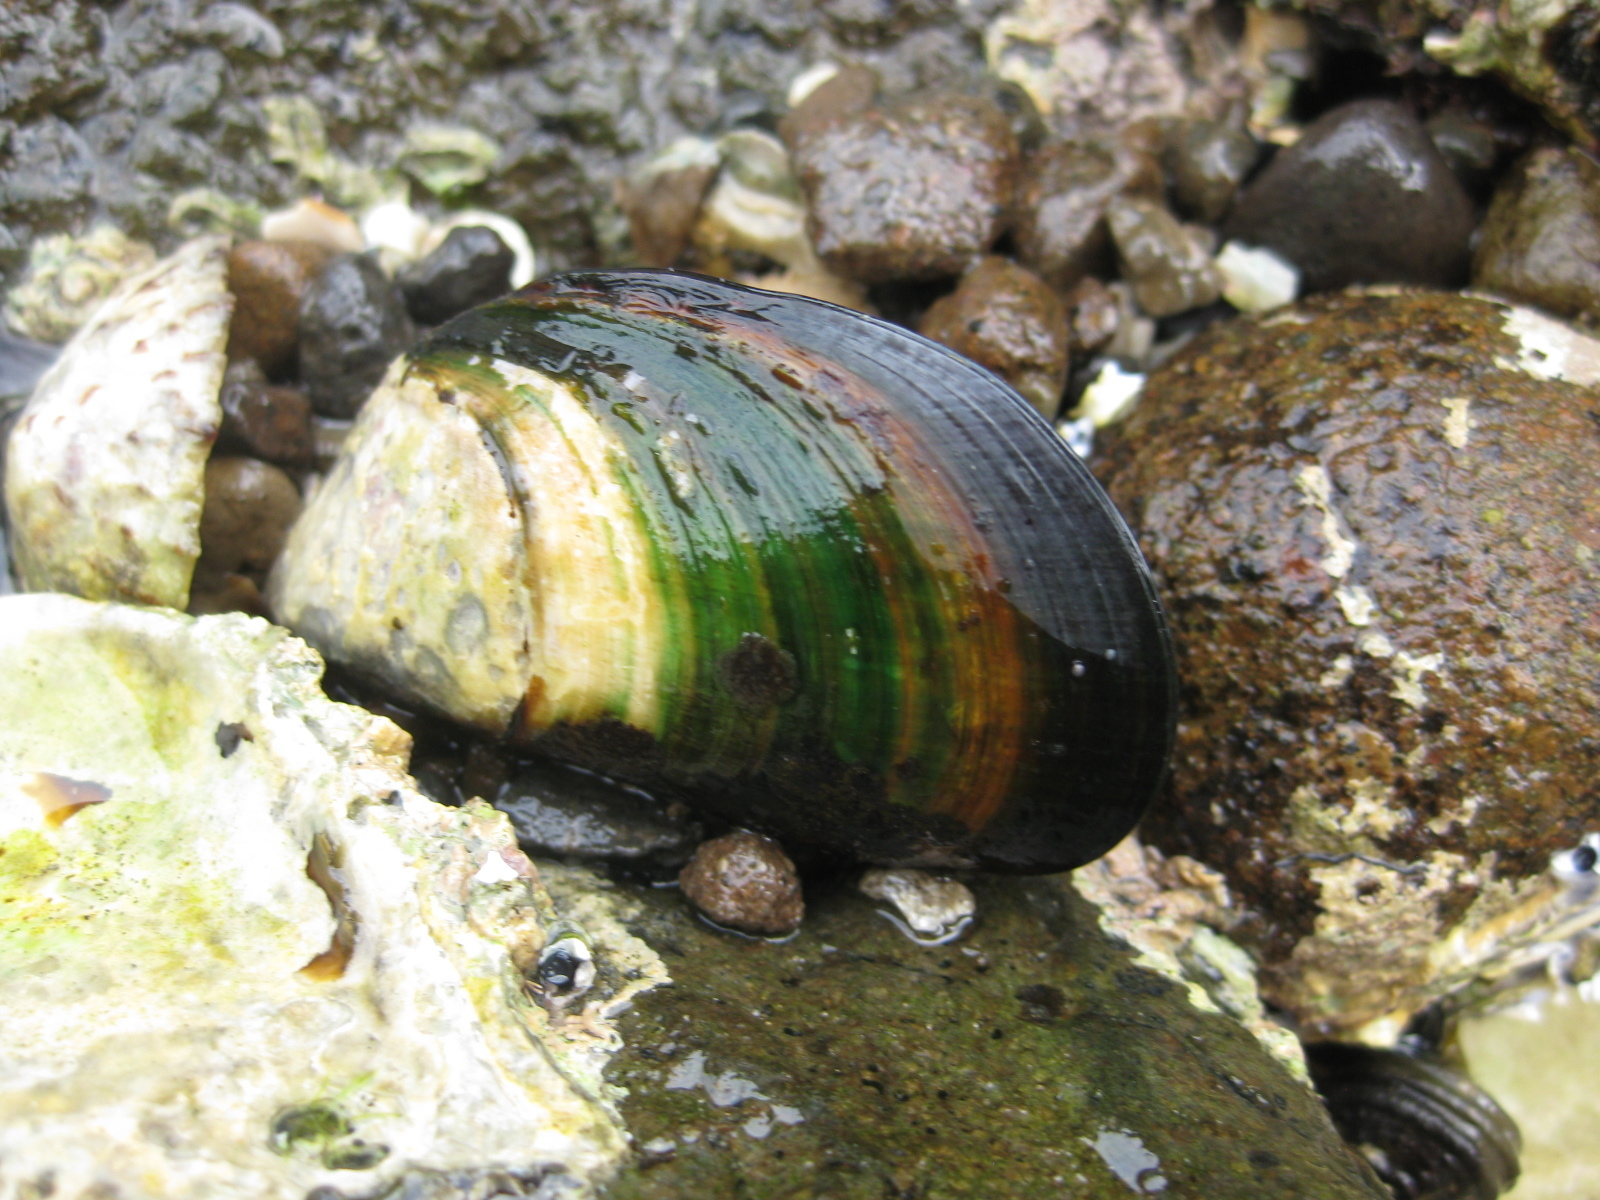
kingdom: Animalia
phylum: Mollusca
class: Bivalvia
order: Mytilida
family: Mytilidae
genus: Perna
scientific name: Perna canaliculus
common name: New zealand greenshelltm
